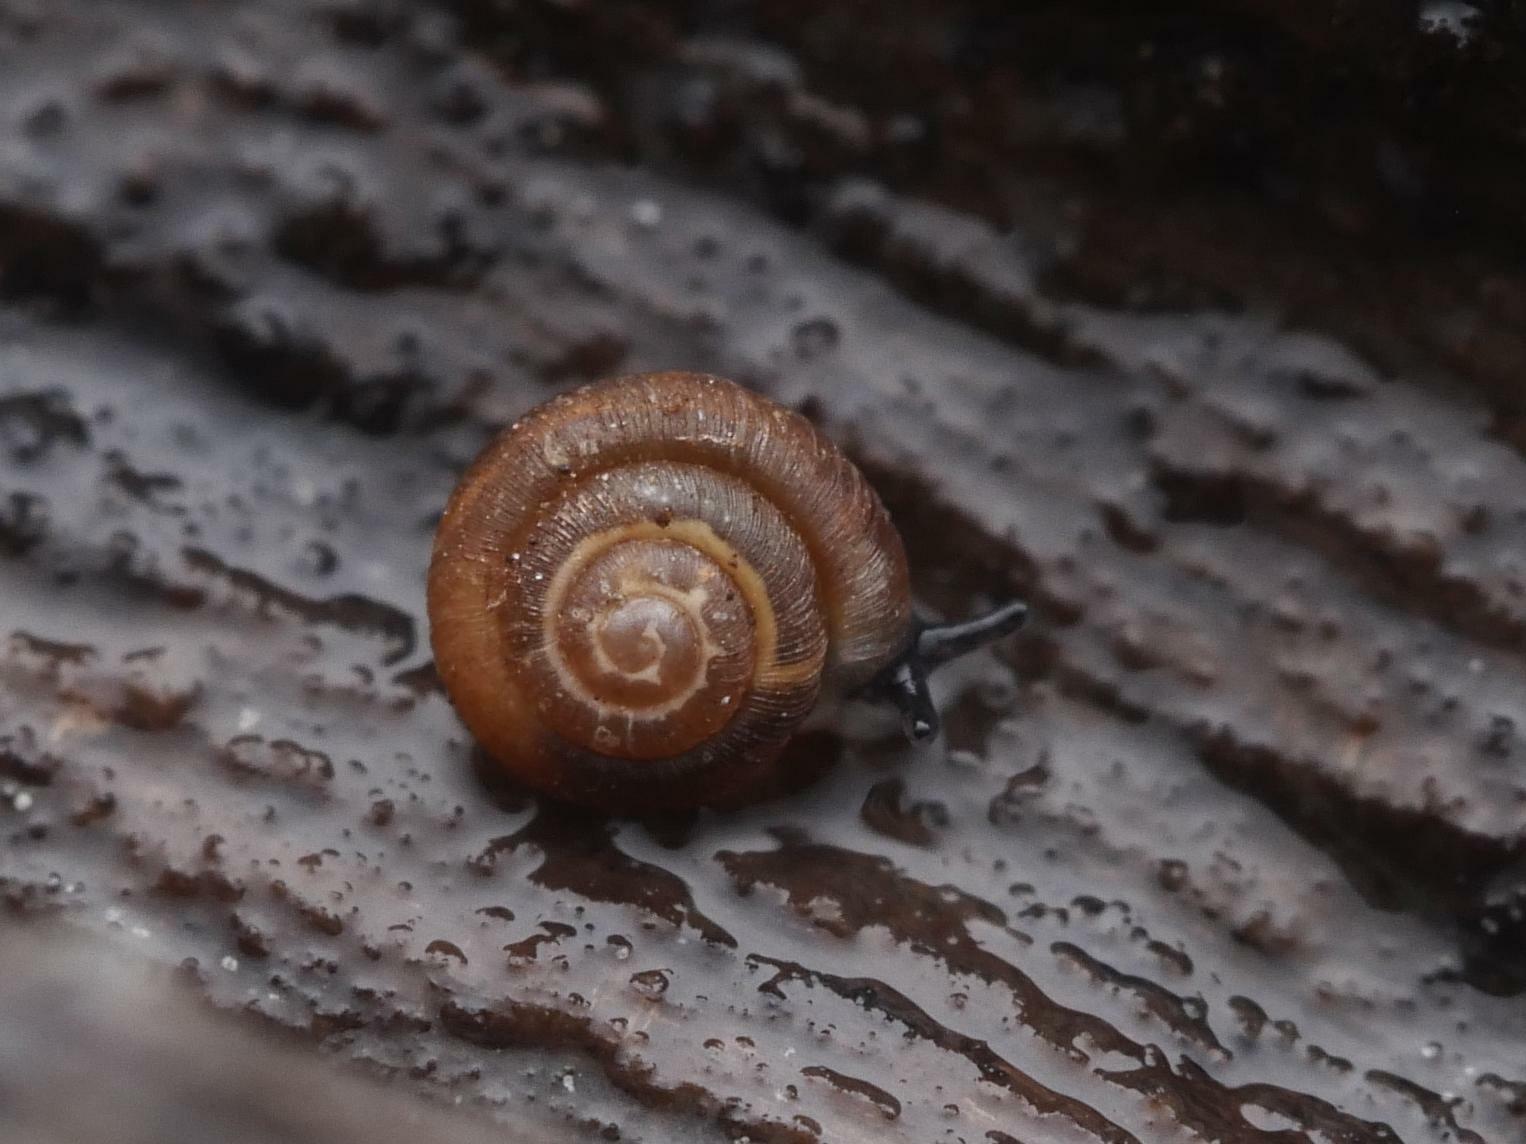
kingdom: Animalia
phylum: Mollusca
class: Gastropoda
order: Stylommatophora
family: Punctidae
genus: Punctum
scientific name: Punctum pygmaeum
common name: Dwarf snail
